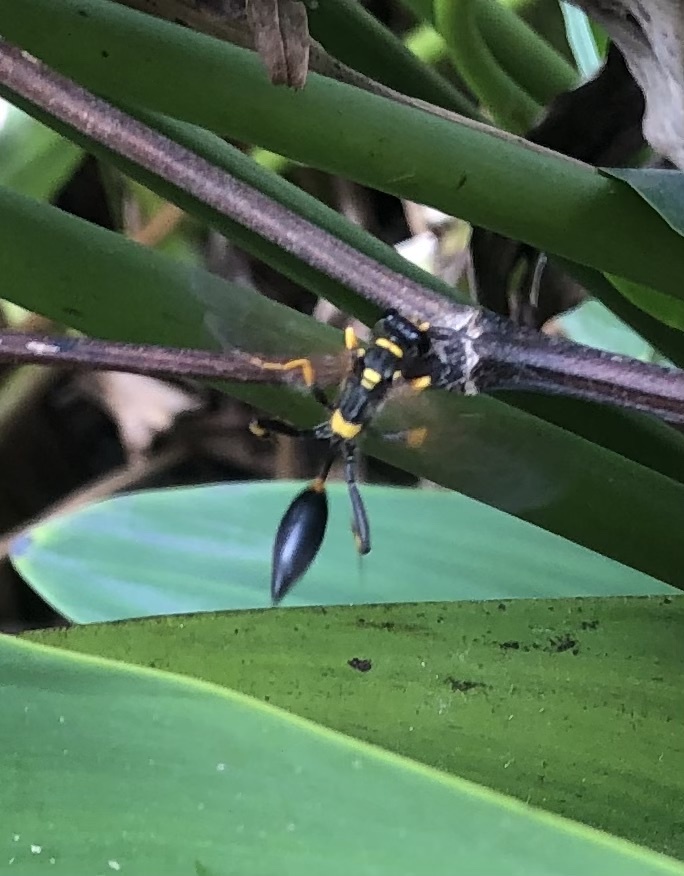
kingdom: Animalia
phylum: Arthropoda
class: Insecta
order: Hymenoptera
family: Sphecidae
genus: Sceliphron
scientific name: Sceliphron caementarium
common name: Mud dauber
